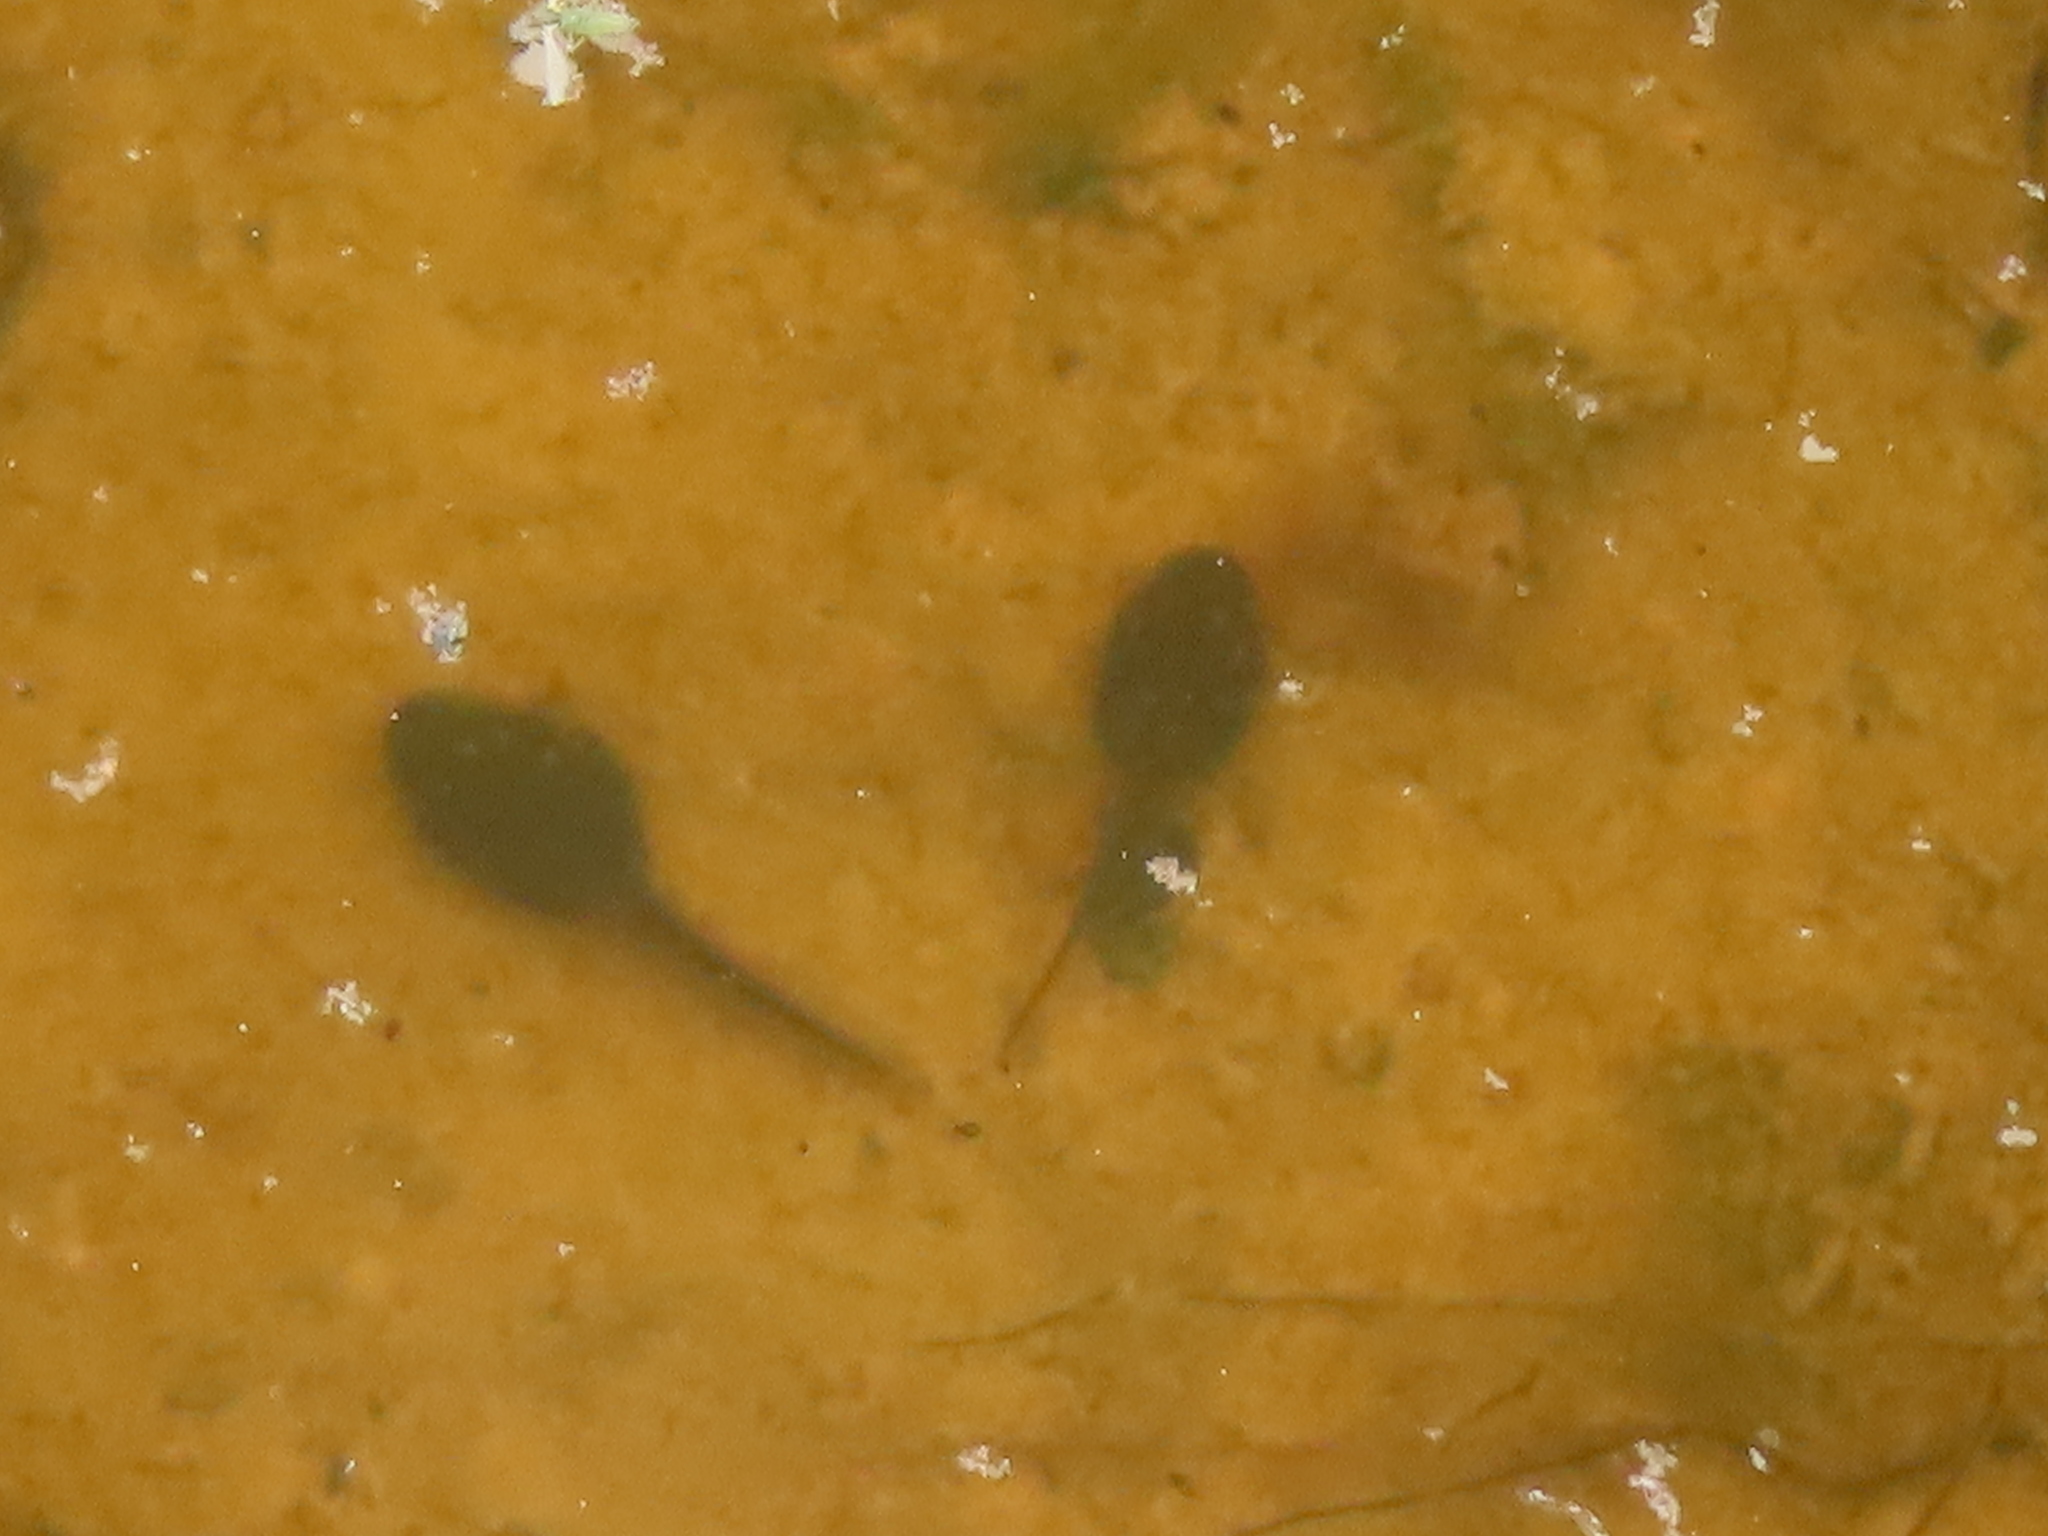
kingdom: Animalia
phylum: Chordata
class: Amphibia
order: Anura
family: Bufonidae
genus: Anaxyrus
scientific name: Anaxyrus americanus
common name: American toad
